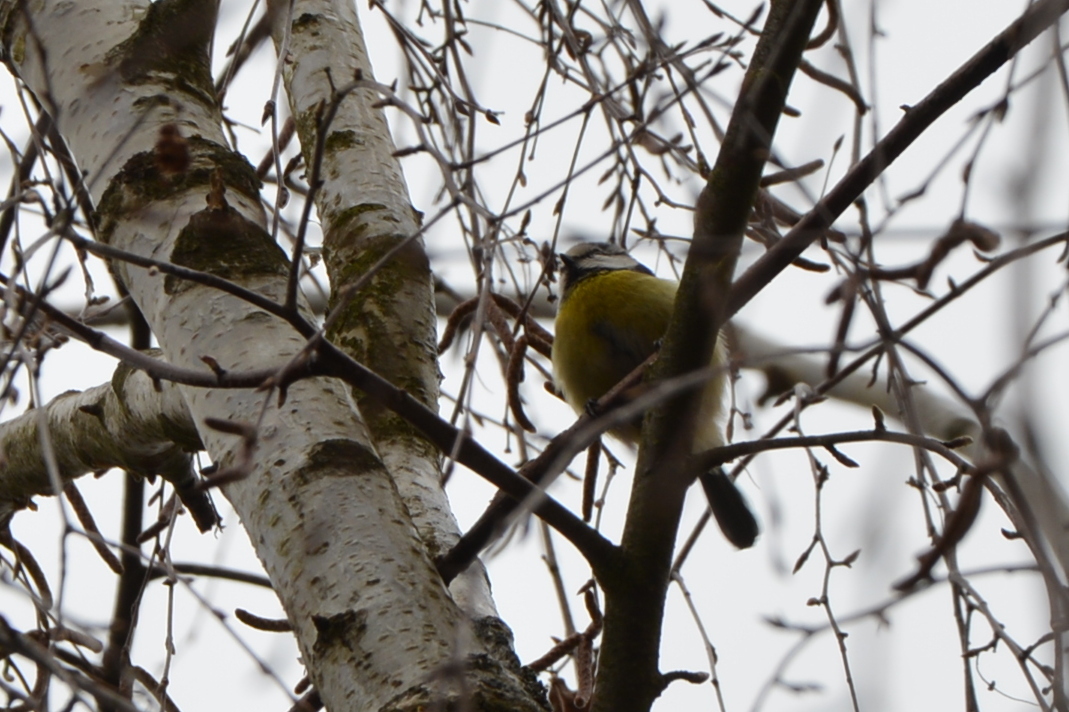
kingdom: Animalia
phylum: Chordata
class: Aves
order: Passeriformes
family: Paridae
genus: Cyanistes
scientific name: Cyanistes caeruleus
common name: Eurasian blue tit
